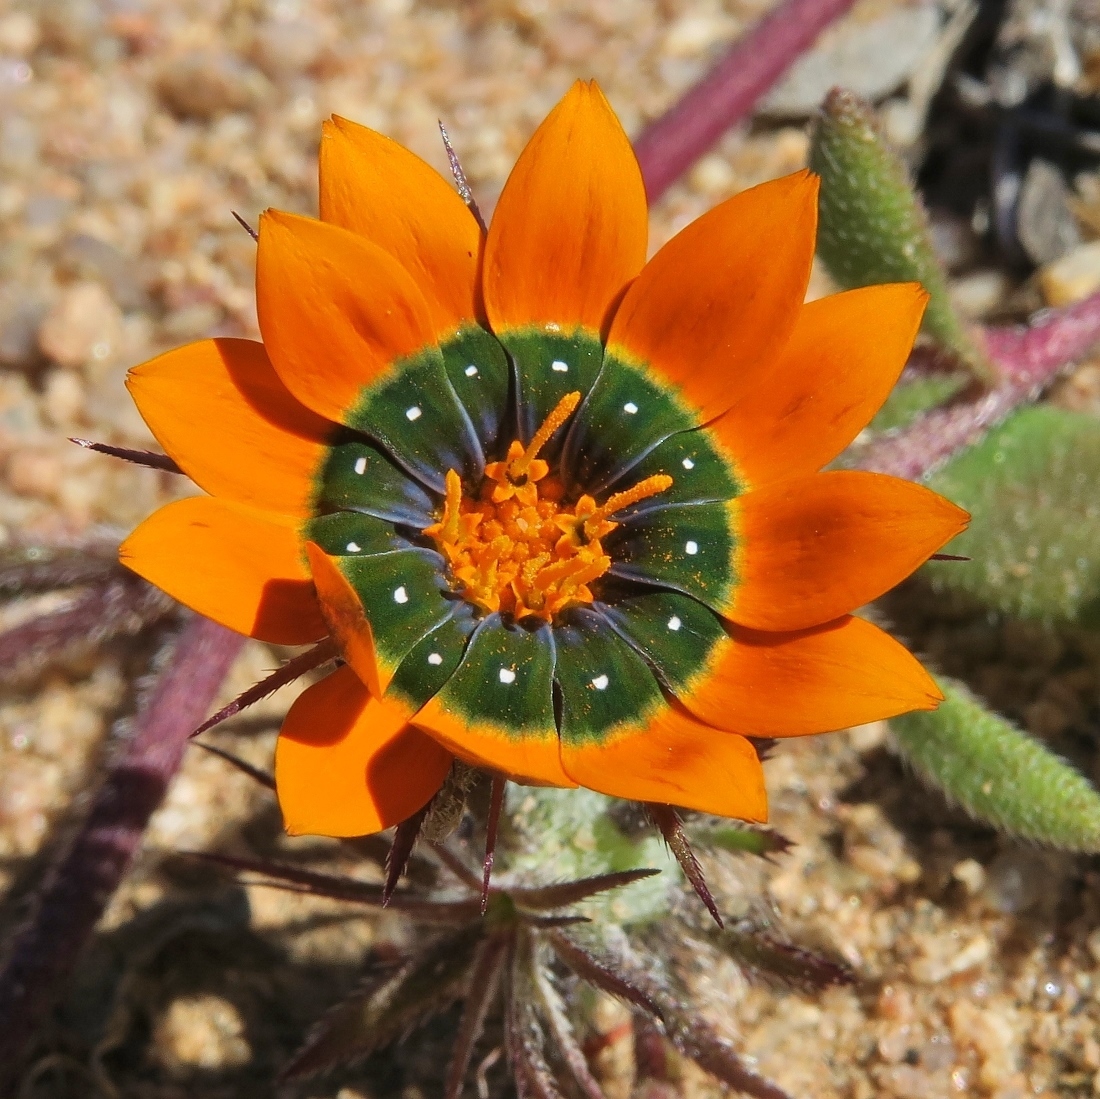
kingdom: Plantae
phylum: Tracheophyta
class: Magnoliopsida
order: Asterales
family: Asteraceae
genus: Gorteria
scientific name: Gorteria diffusa
